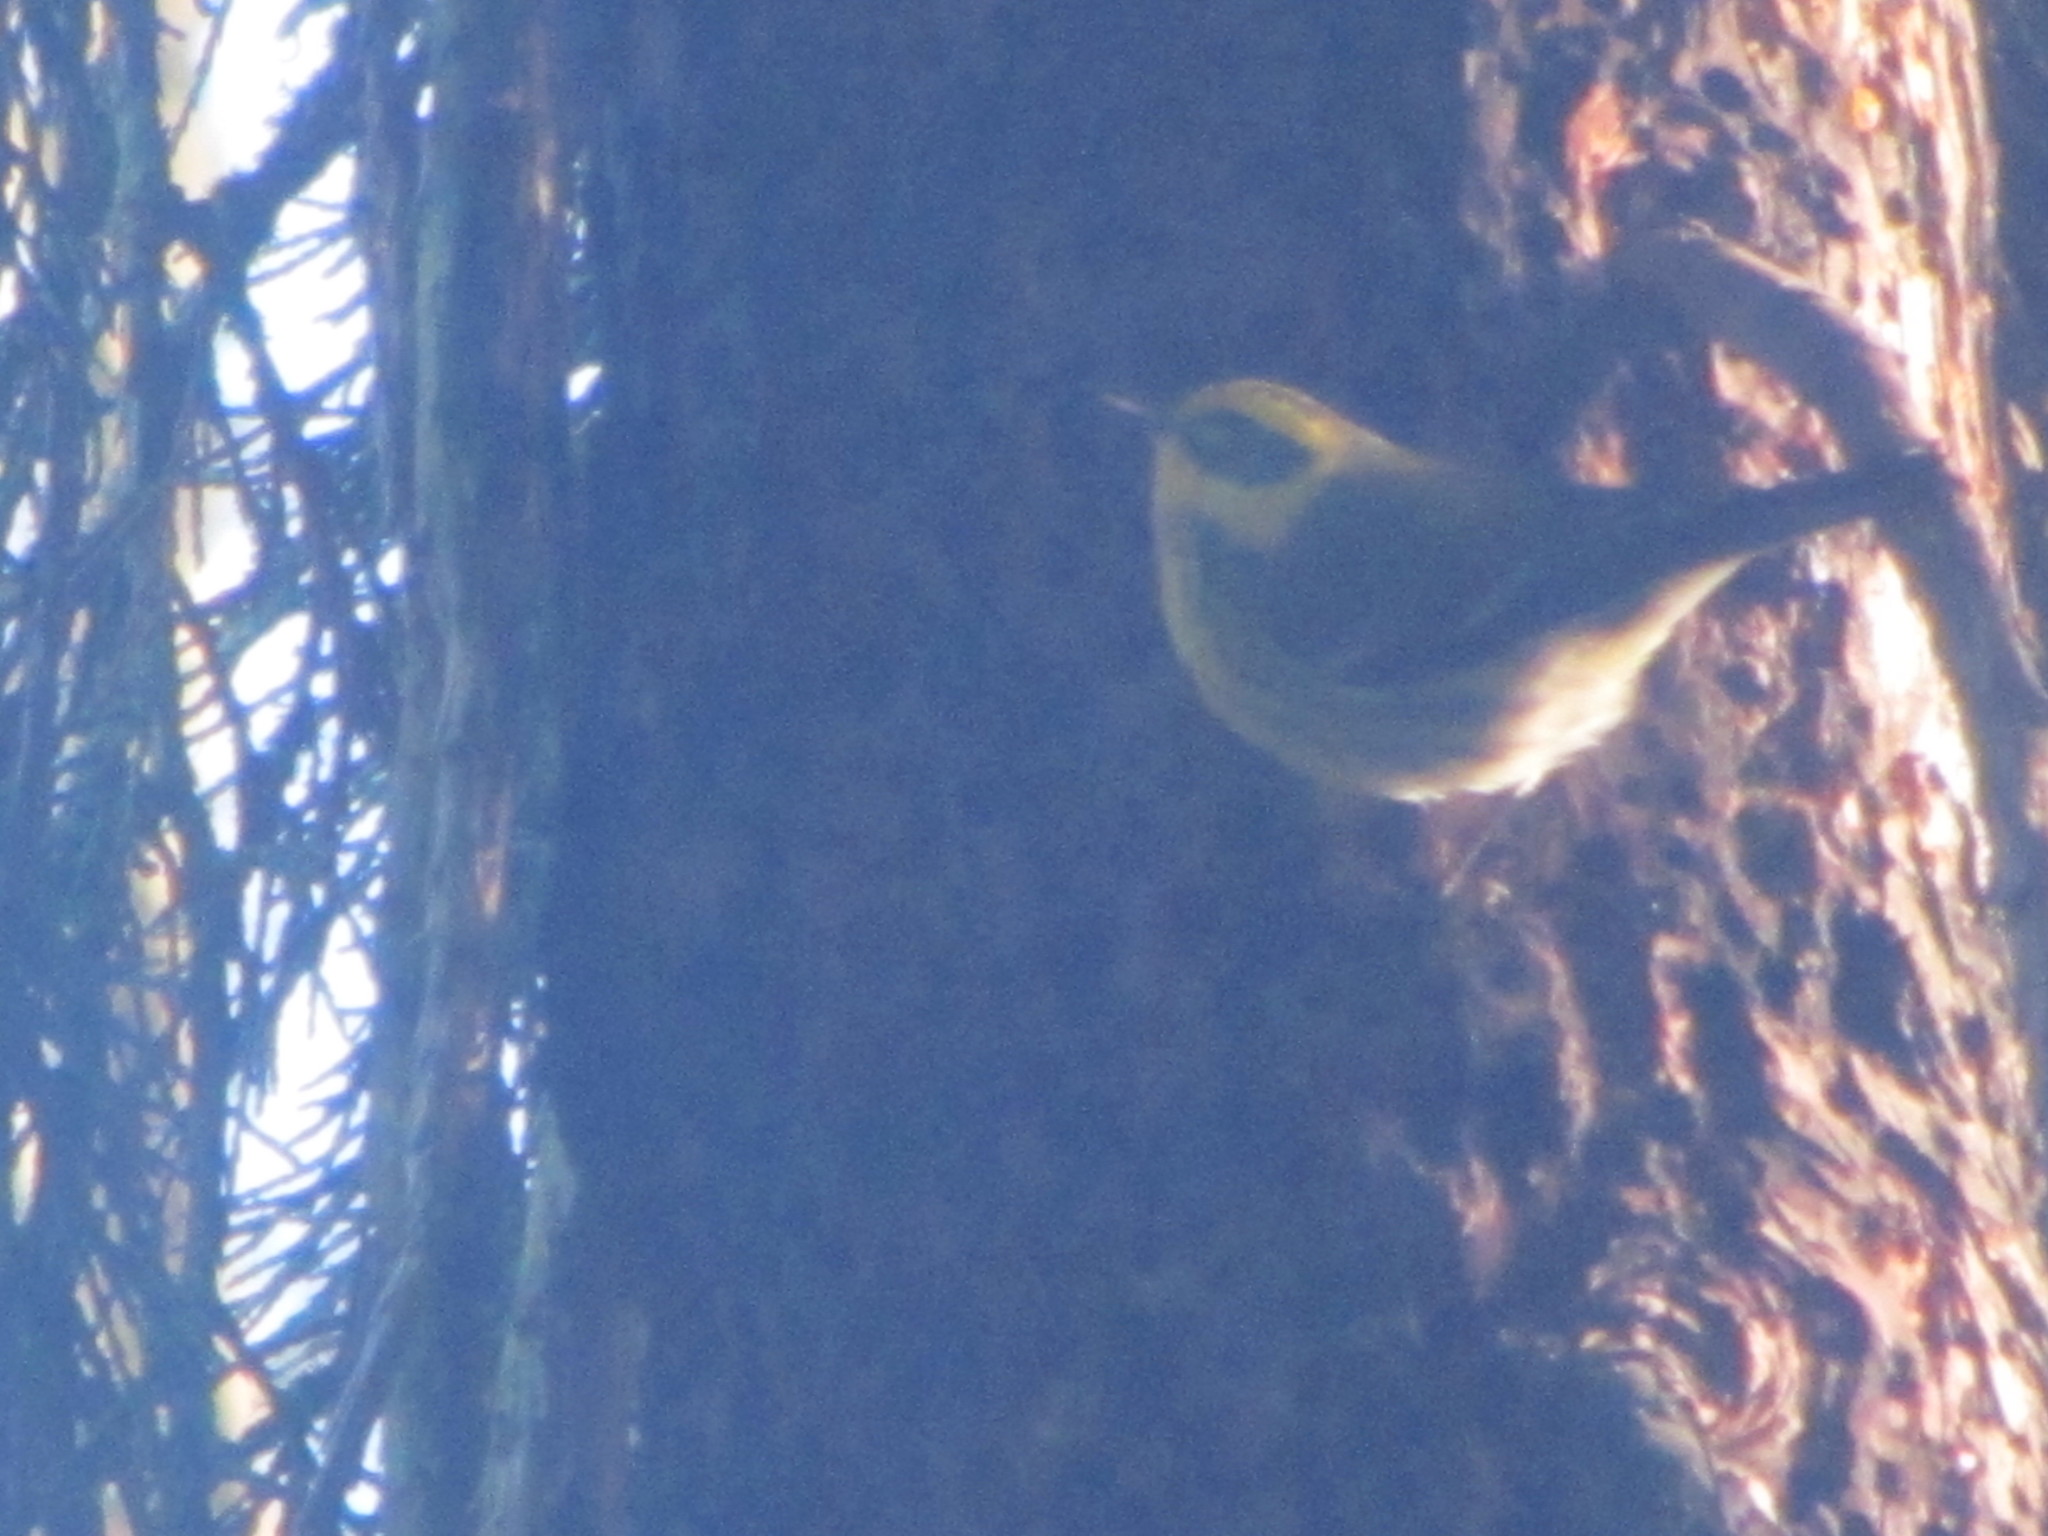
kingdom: Animalia
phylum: Chordata
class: Aves
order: Passeriformes
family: Parulidae
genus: Setophaga
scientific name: Setophaga townsendi
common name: Townsend's warbler
